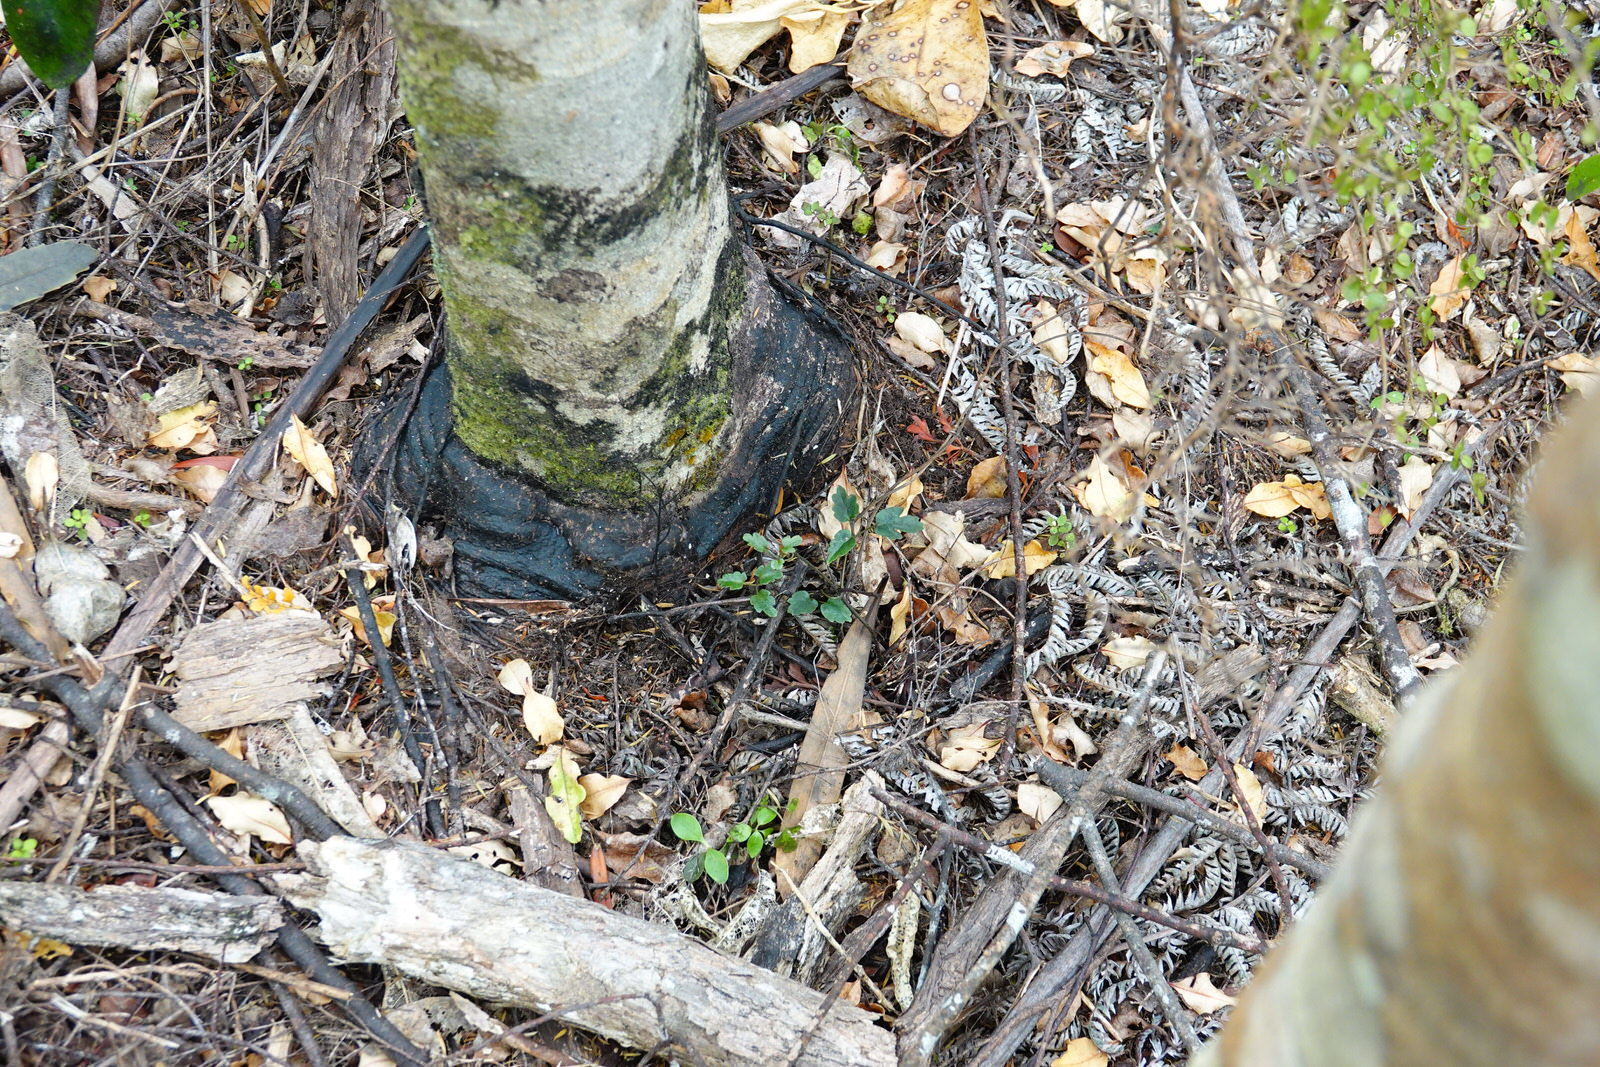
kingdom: Plantae
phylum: Tracheophyta
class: Magnoliopsida
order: Ranunculales
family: Ranunculaceae
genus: Clematis
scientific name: Clematis paniculata
